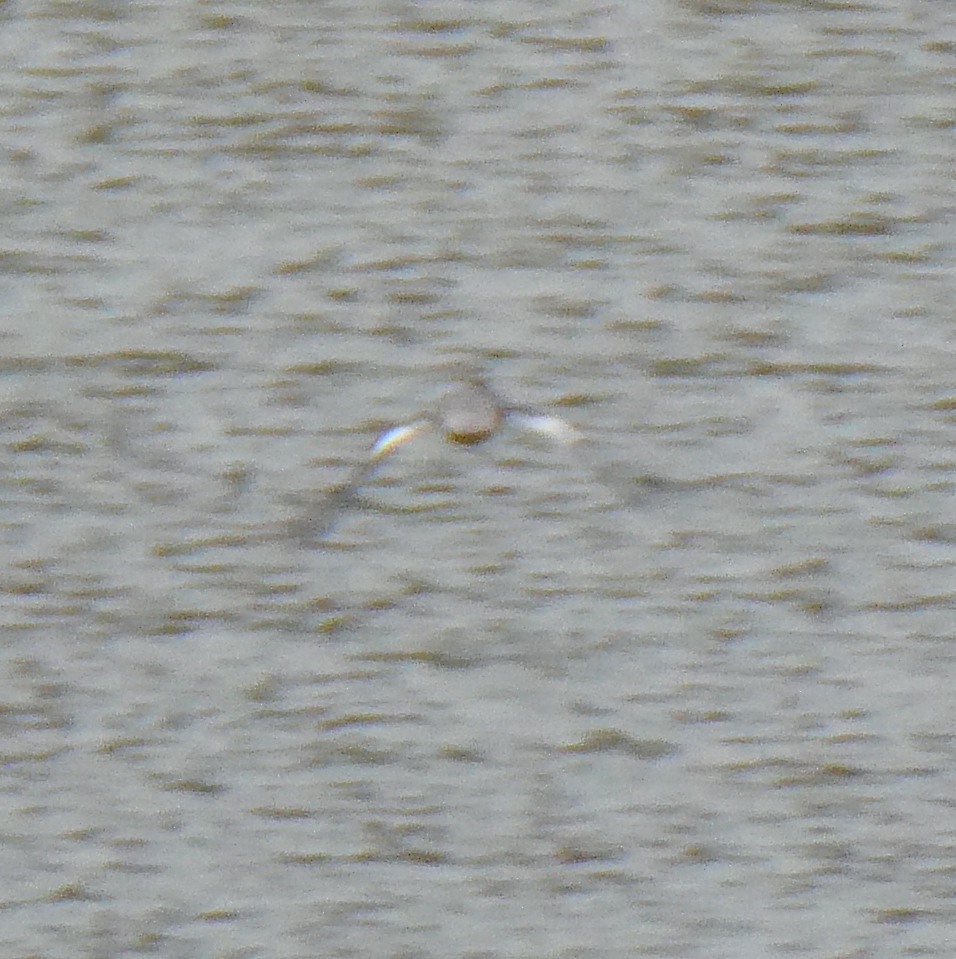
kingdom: Animalia
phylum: Chordata
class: Aves
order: Anseriformes
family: Anatidae
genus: Mergus
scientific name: Mergus merganser
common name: Common merganser
